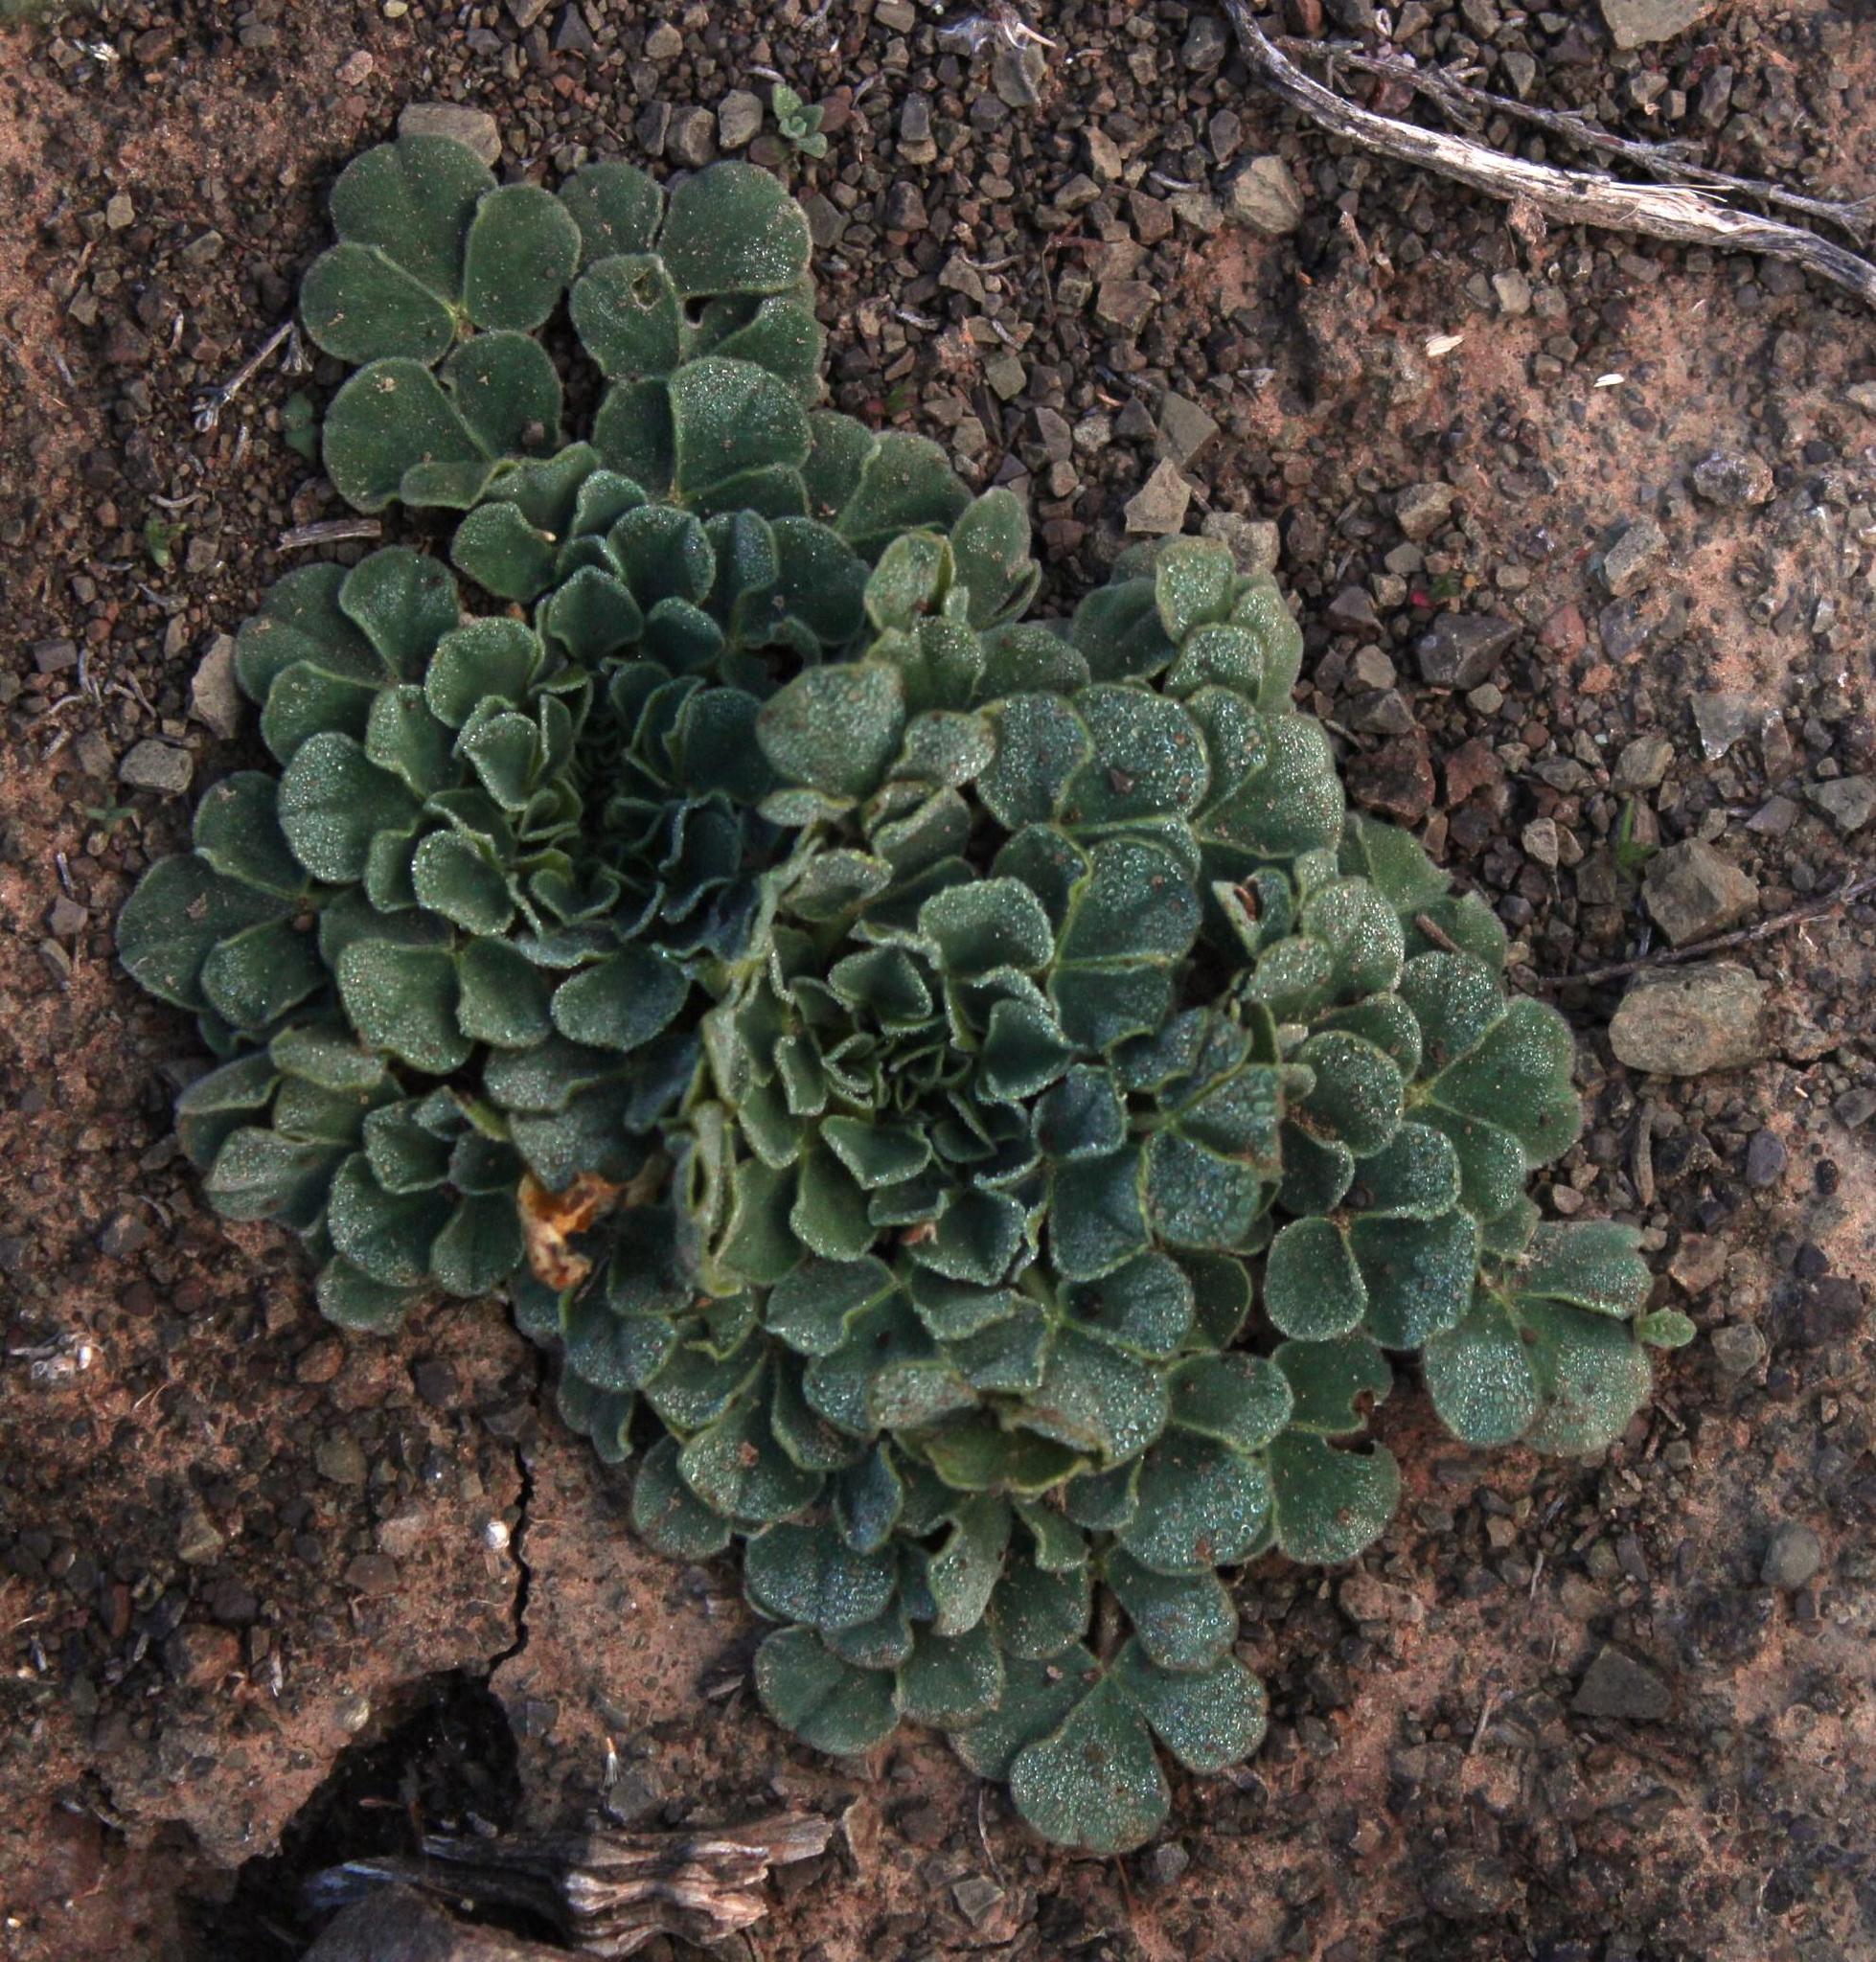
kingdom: Plantae
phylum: Tracheophyta
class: Magnoliopsida
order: Oxalidales
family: Oxalidaceae
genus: Oxalis
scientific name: Oxalis melanosticta
